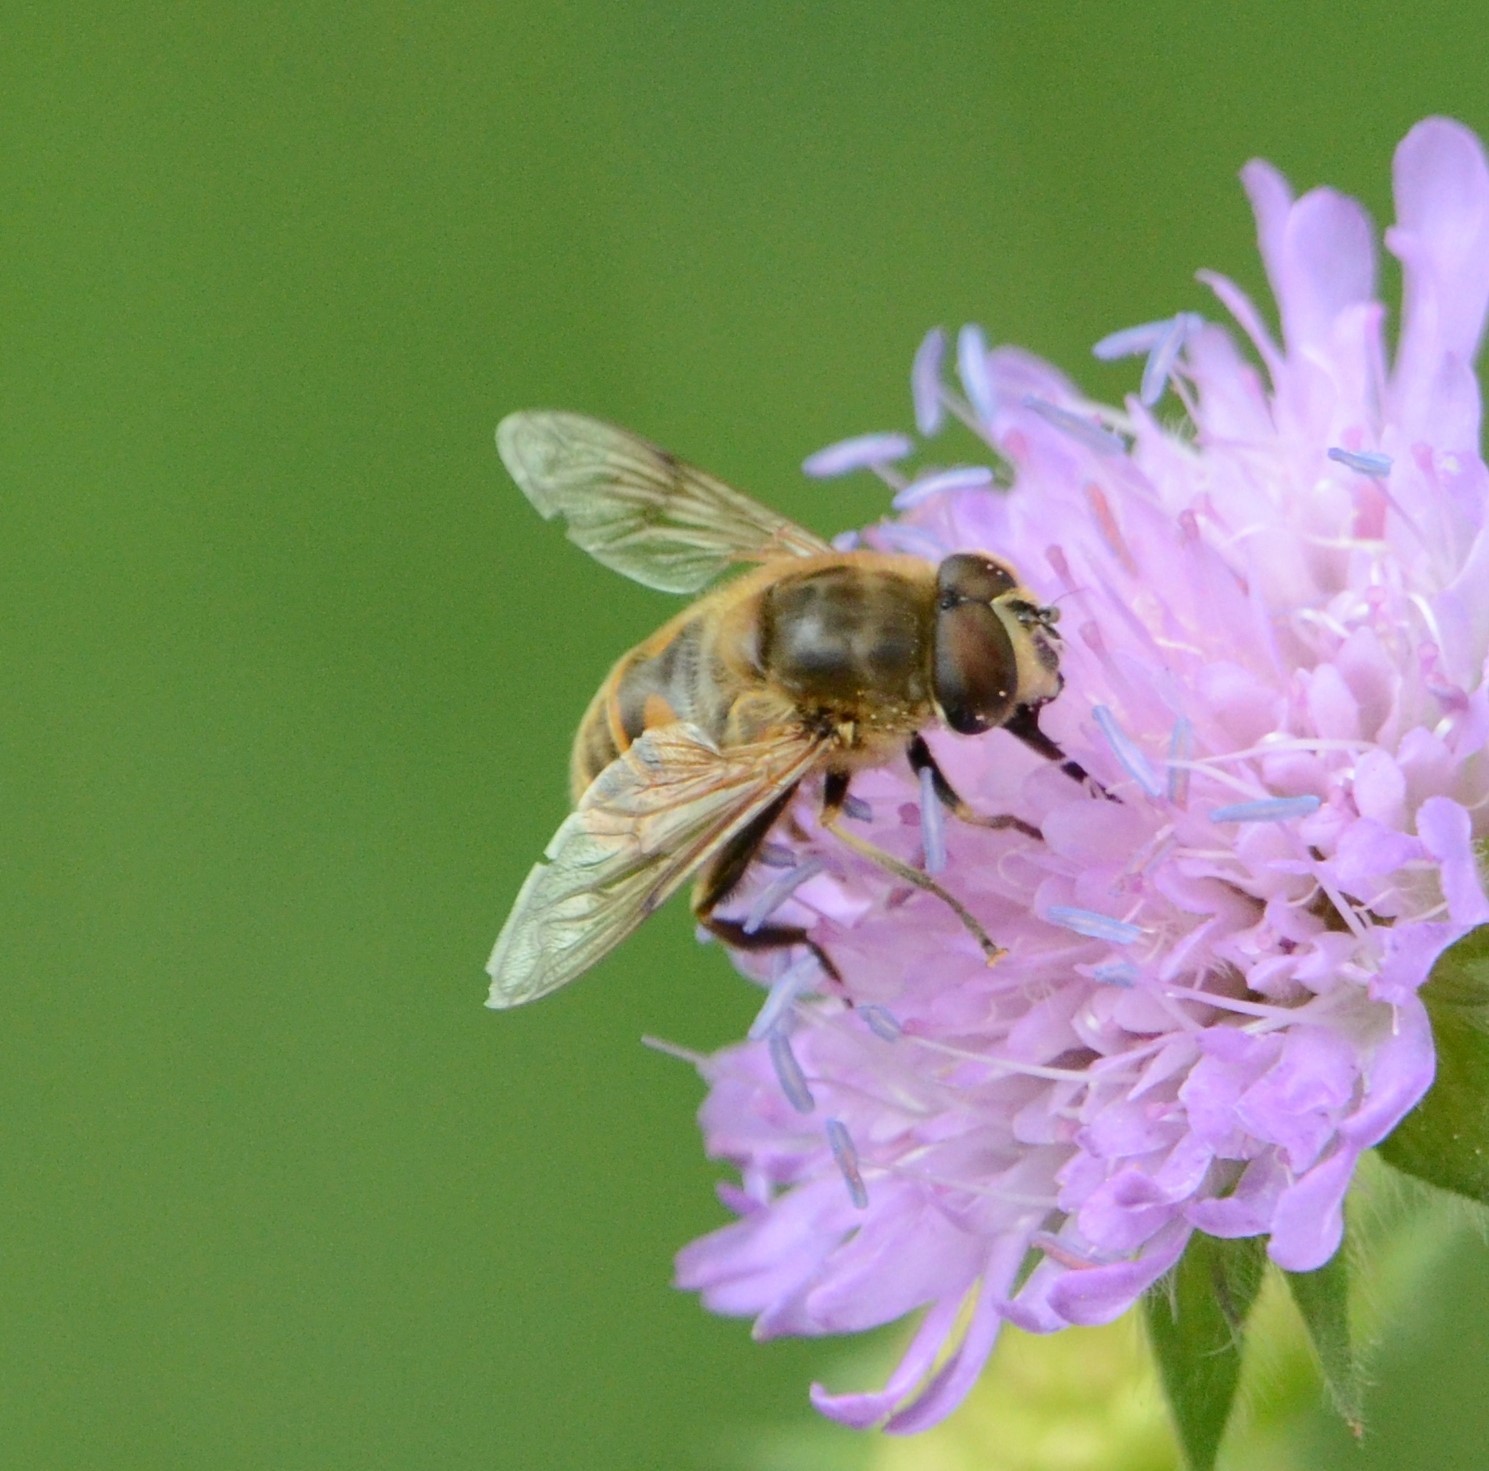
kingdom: Animalia
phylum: Arthropoda
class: Insecta
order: Diptera
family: Syrphidae
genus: Eristalis
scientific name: Eristalis tenax
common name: Drone fly
